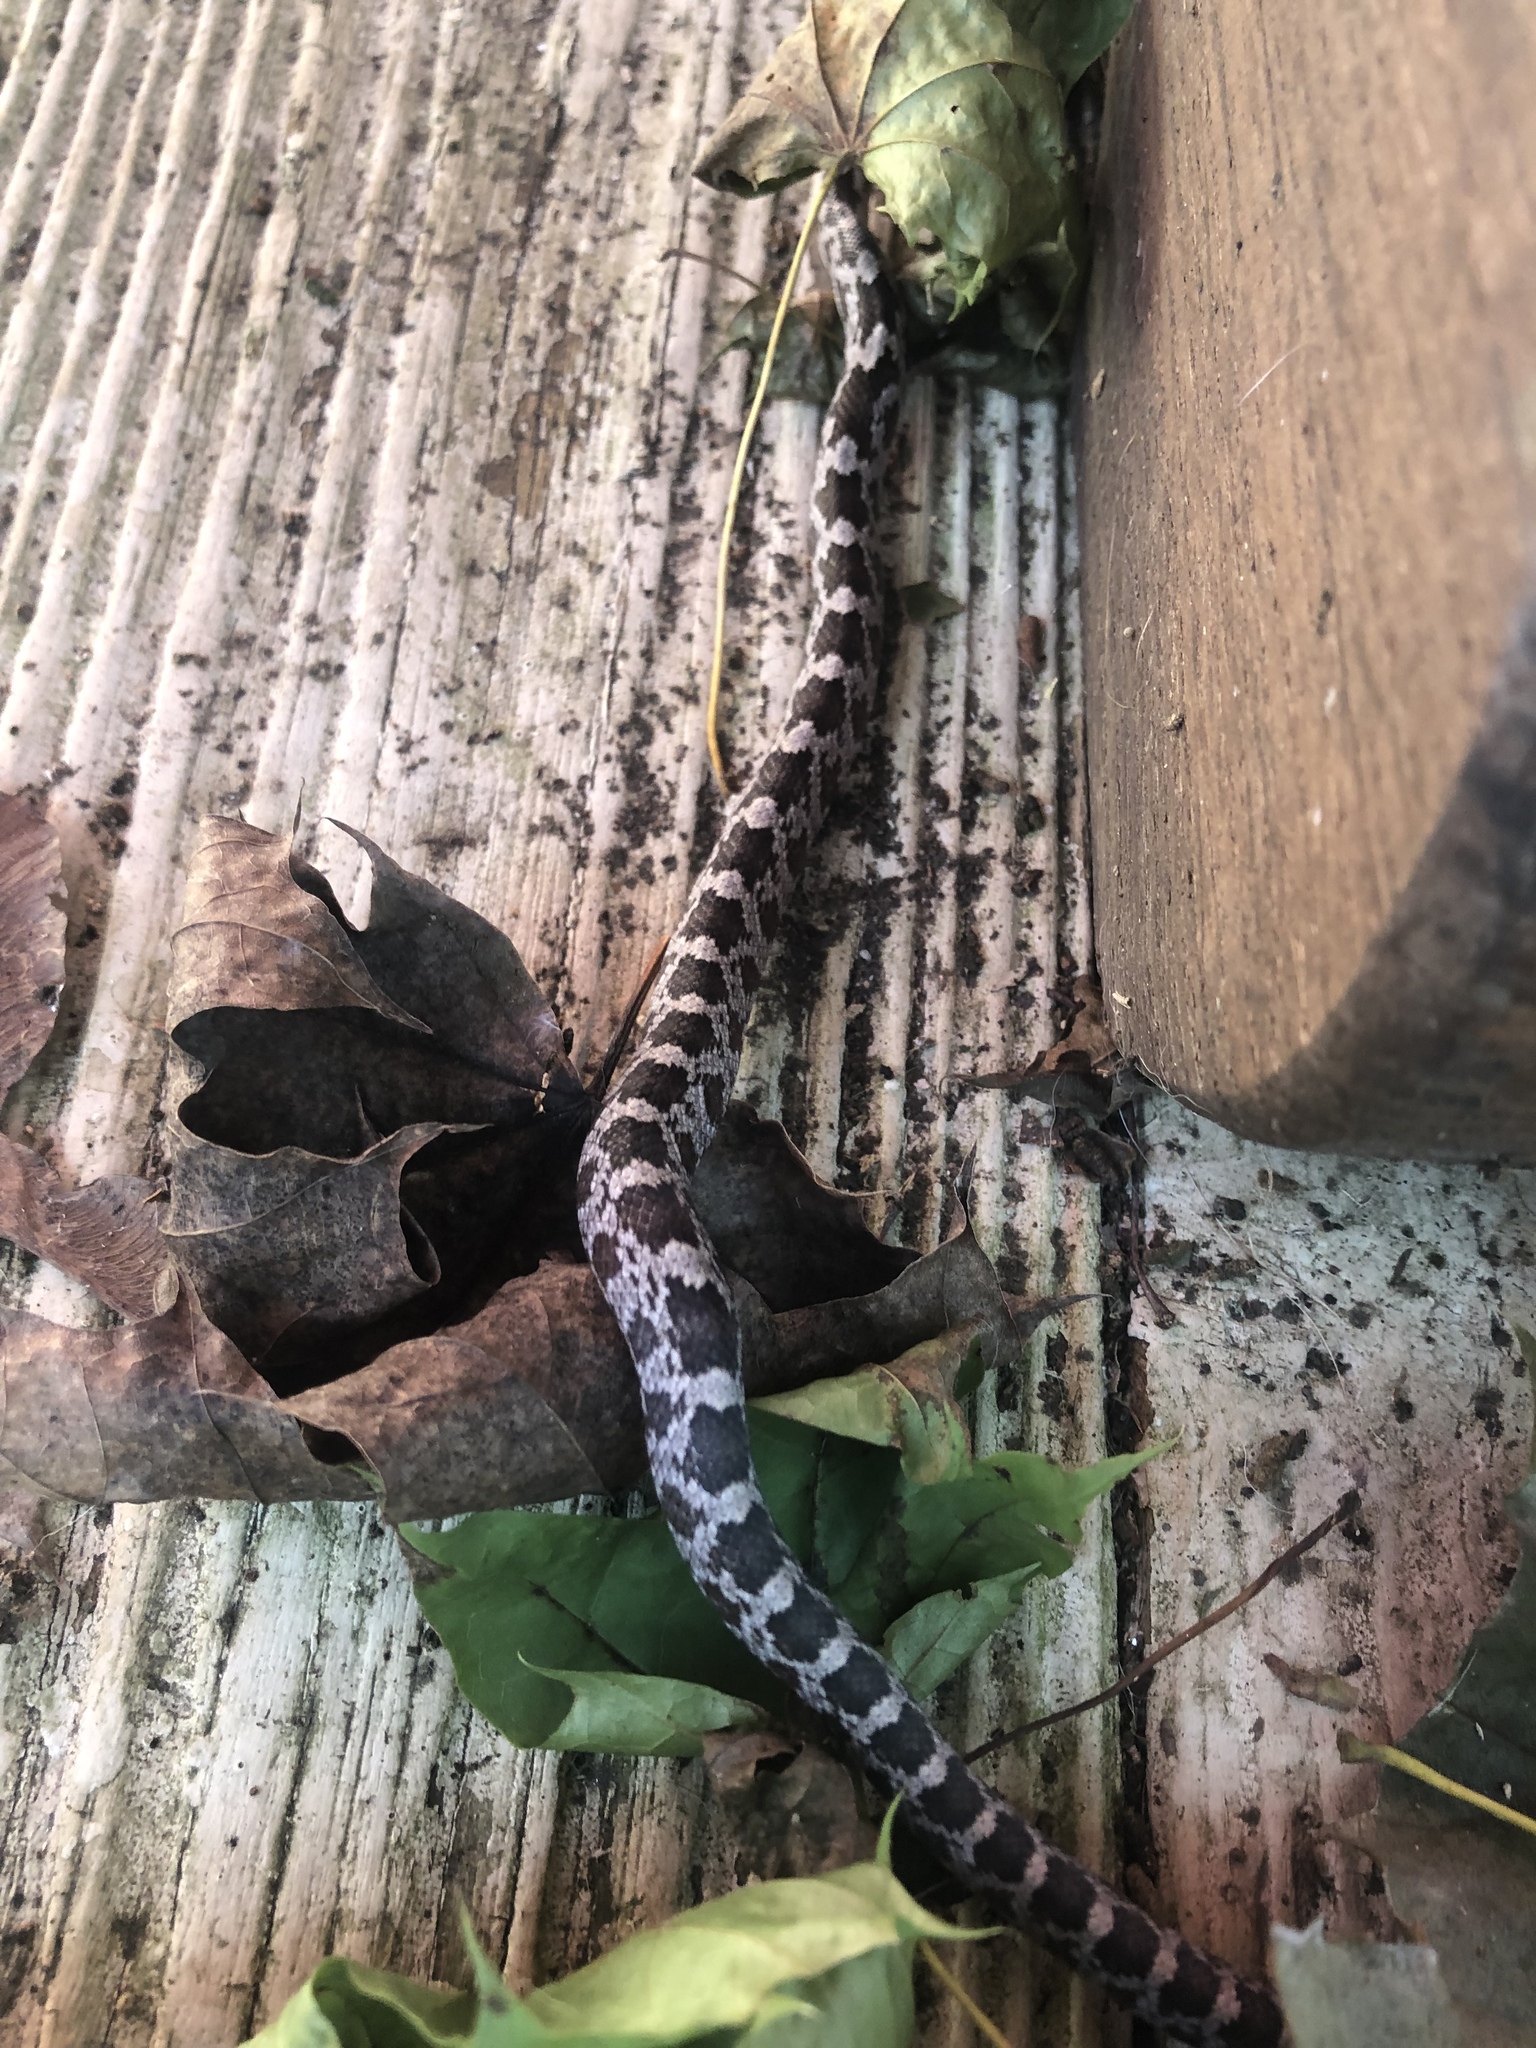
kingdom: Animalia
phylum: Chordata
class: Squamata
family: Colubridae
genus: Pantherophis
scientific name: Pantherophis alleghaniensis
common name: Eastern rat snake
